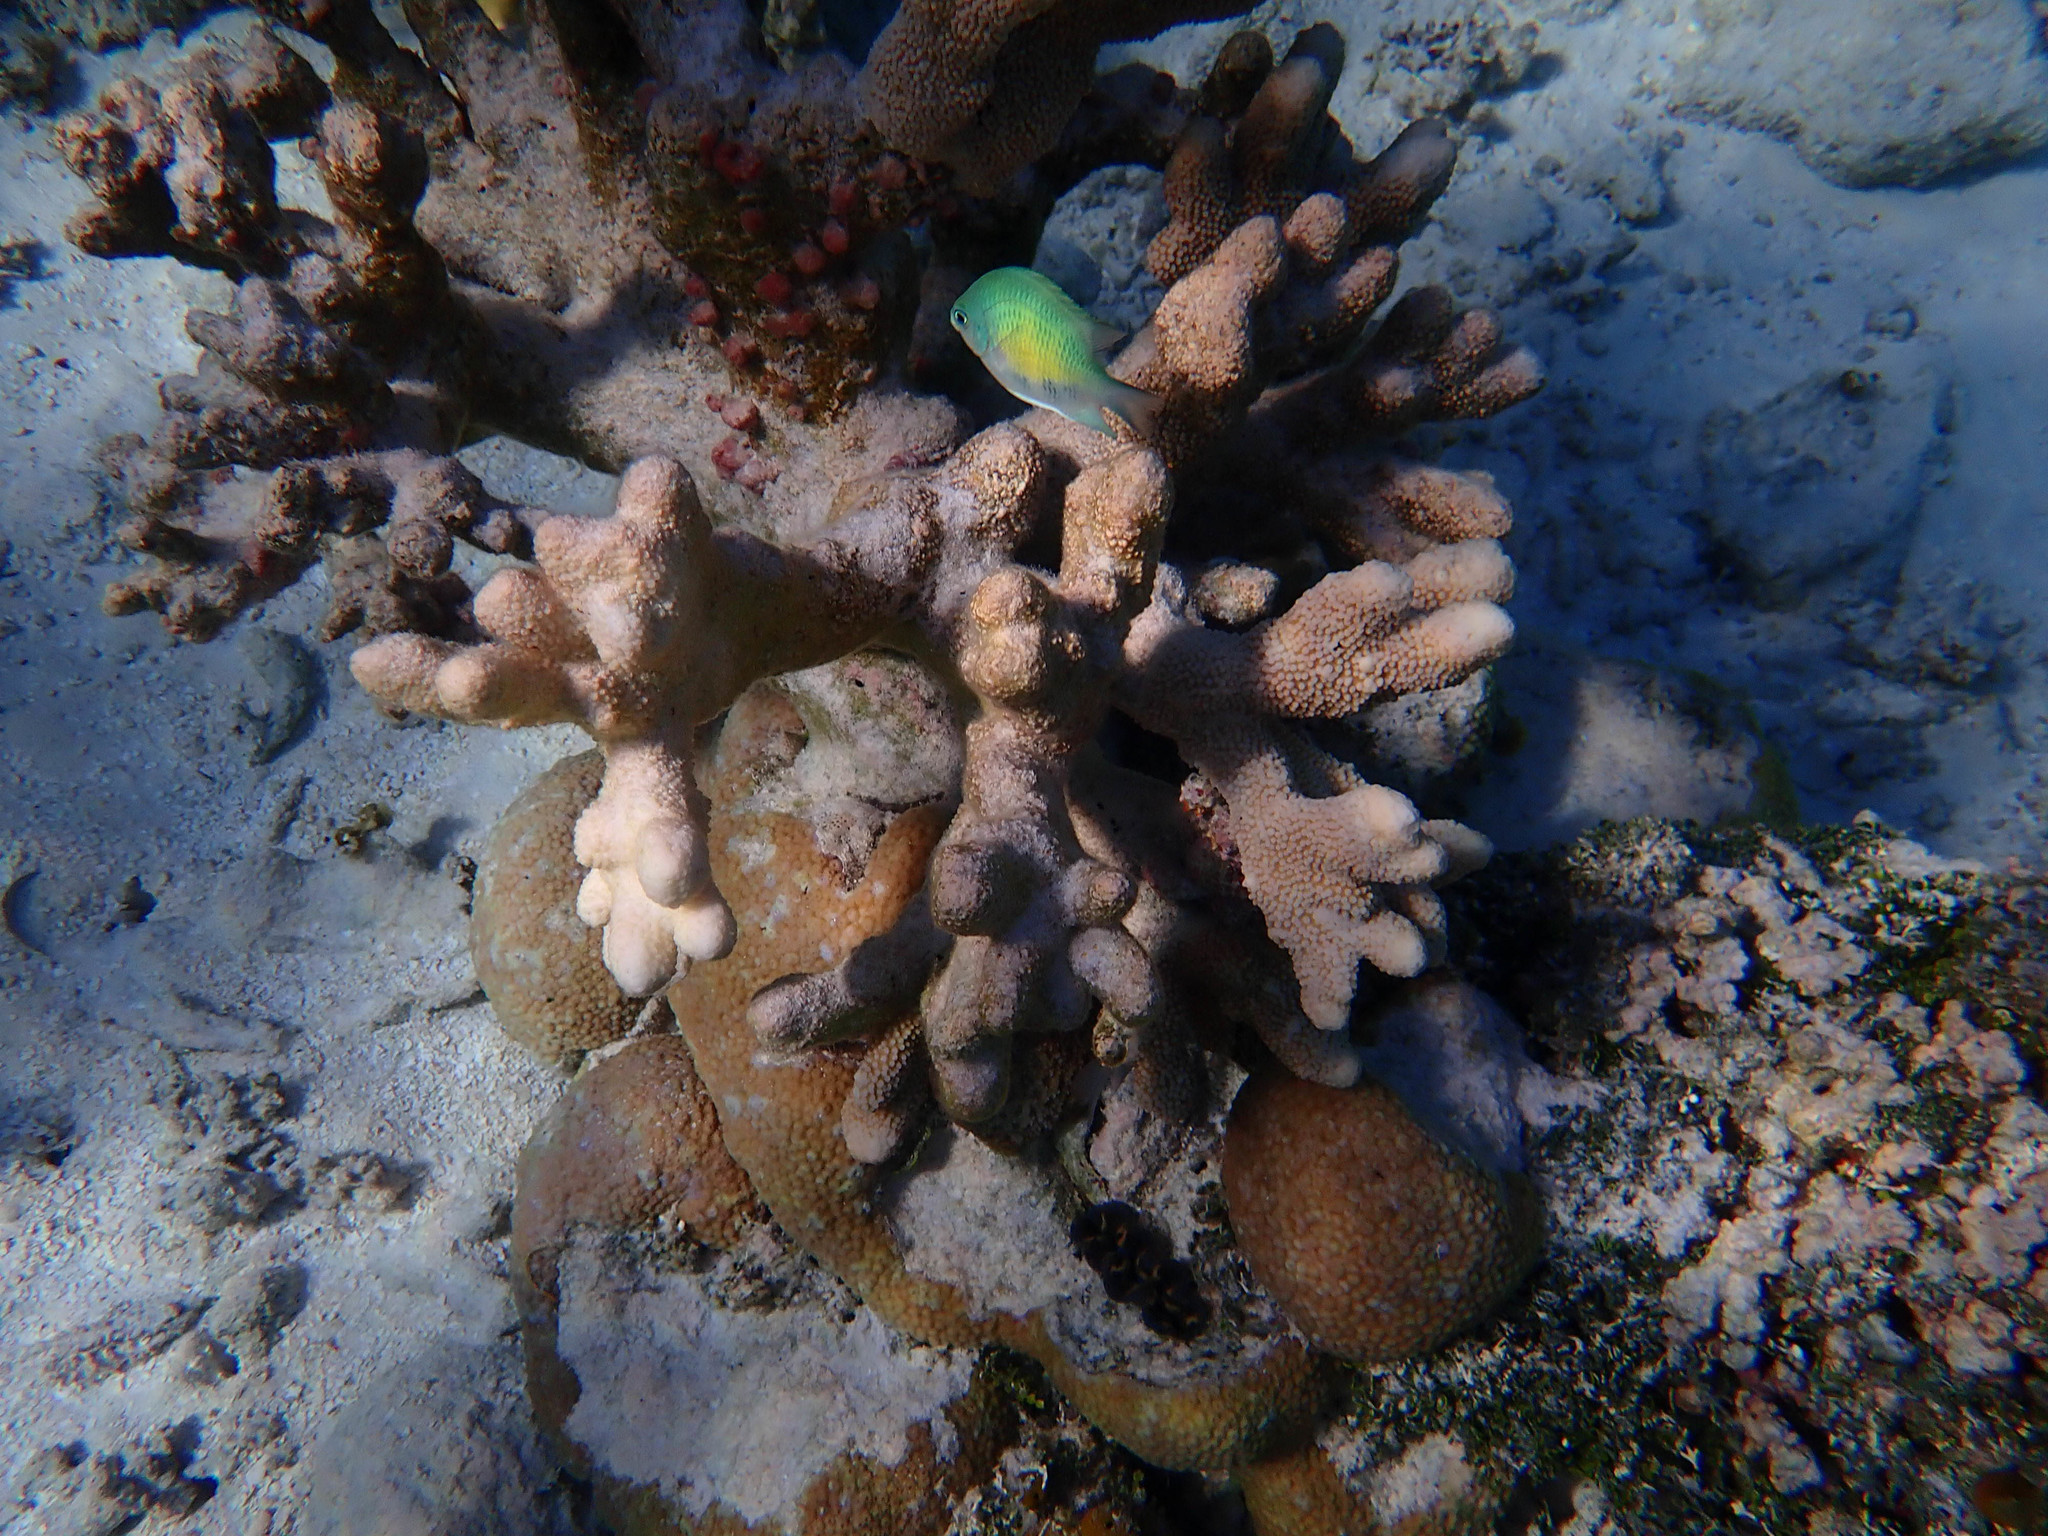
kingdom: Animalia
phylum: Chordata
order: Perciformes
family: Pomacentridae
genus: Amblyglyphidodon
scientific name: Amblyglyphidodon curacao
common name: Staghorn damsel
